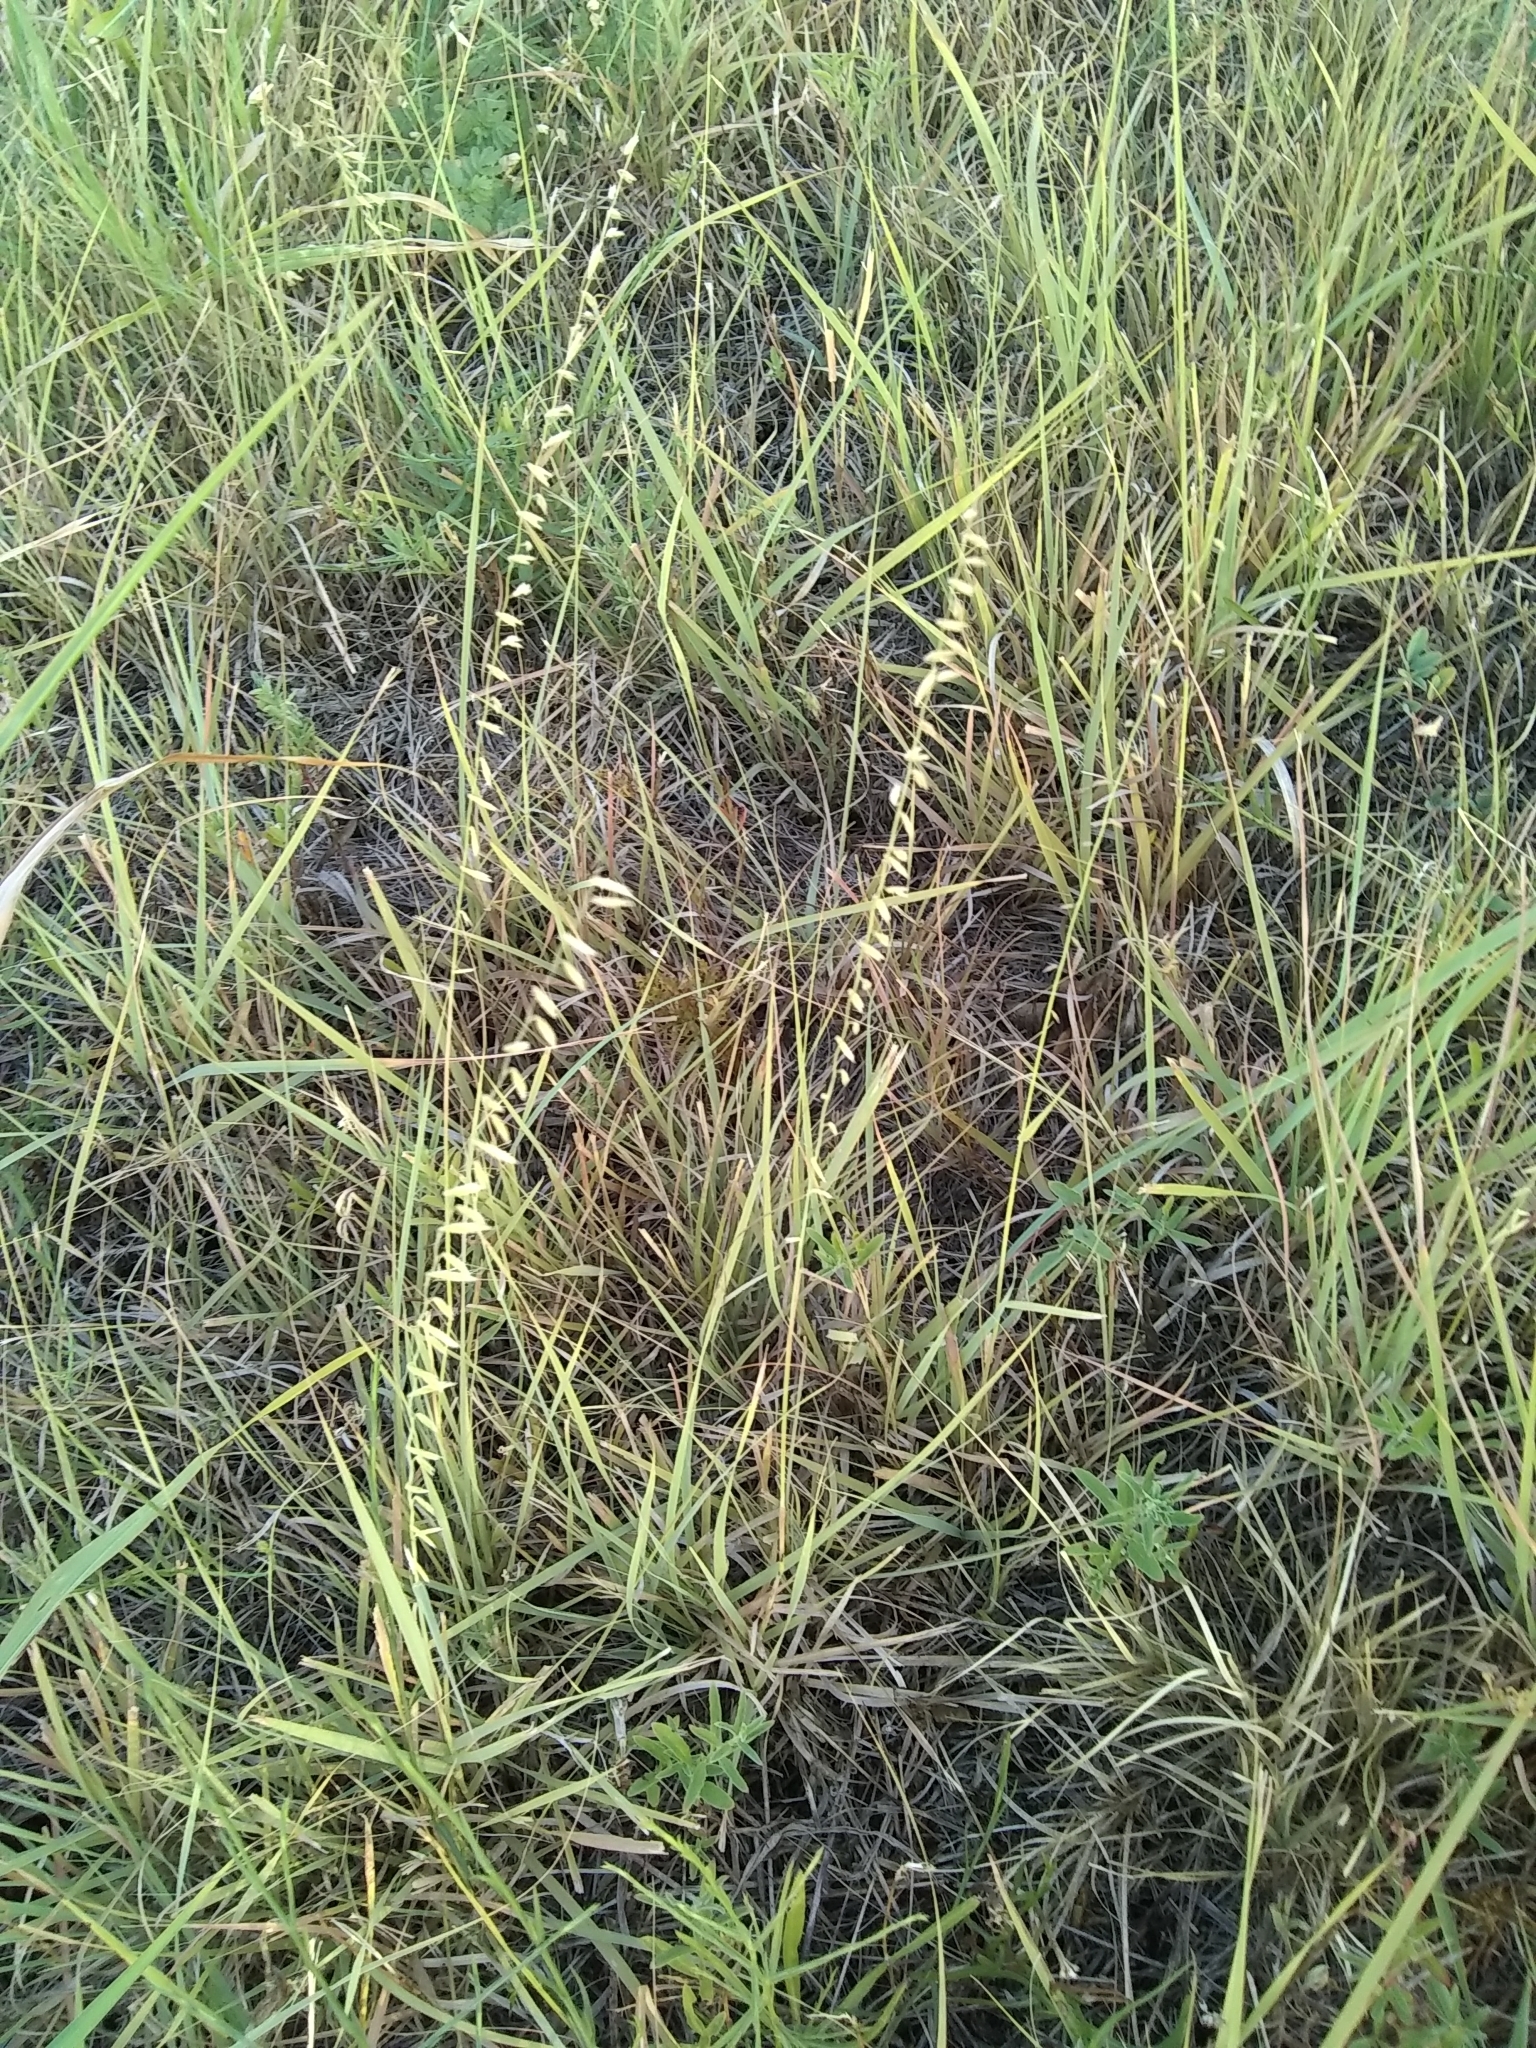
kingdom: Plantae
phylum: Tracheophyta
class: Liliopsida
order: Poales
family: Poaceae
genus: Bouteloua
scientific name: Bouteloua curtipendula
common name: Side-oats grama
